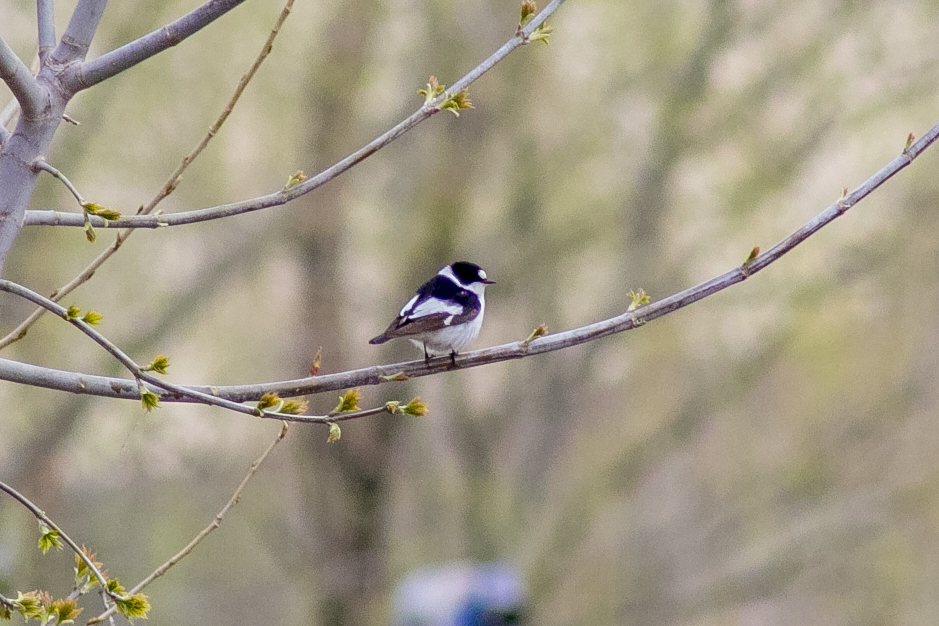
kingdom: Animalia
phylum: Chordata
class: Aves
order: Passeriformes
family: Muscicapidae
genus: Ficedula
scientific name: Ficedula albicollis
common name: Collared flycatcher
